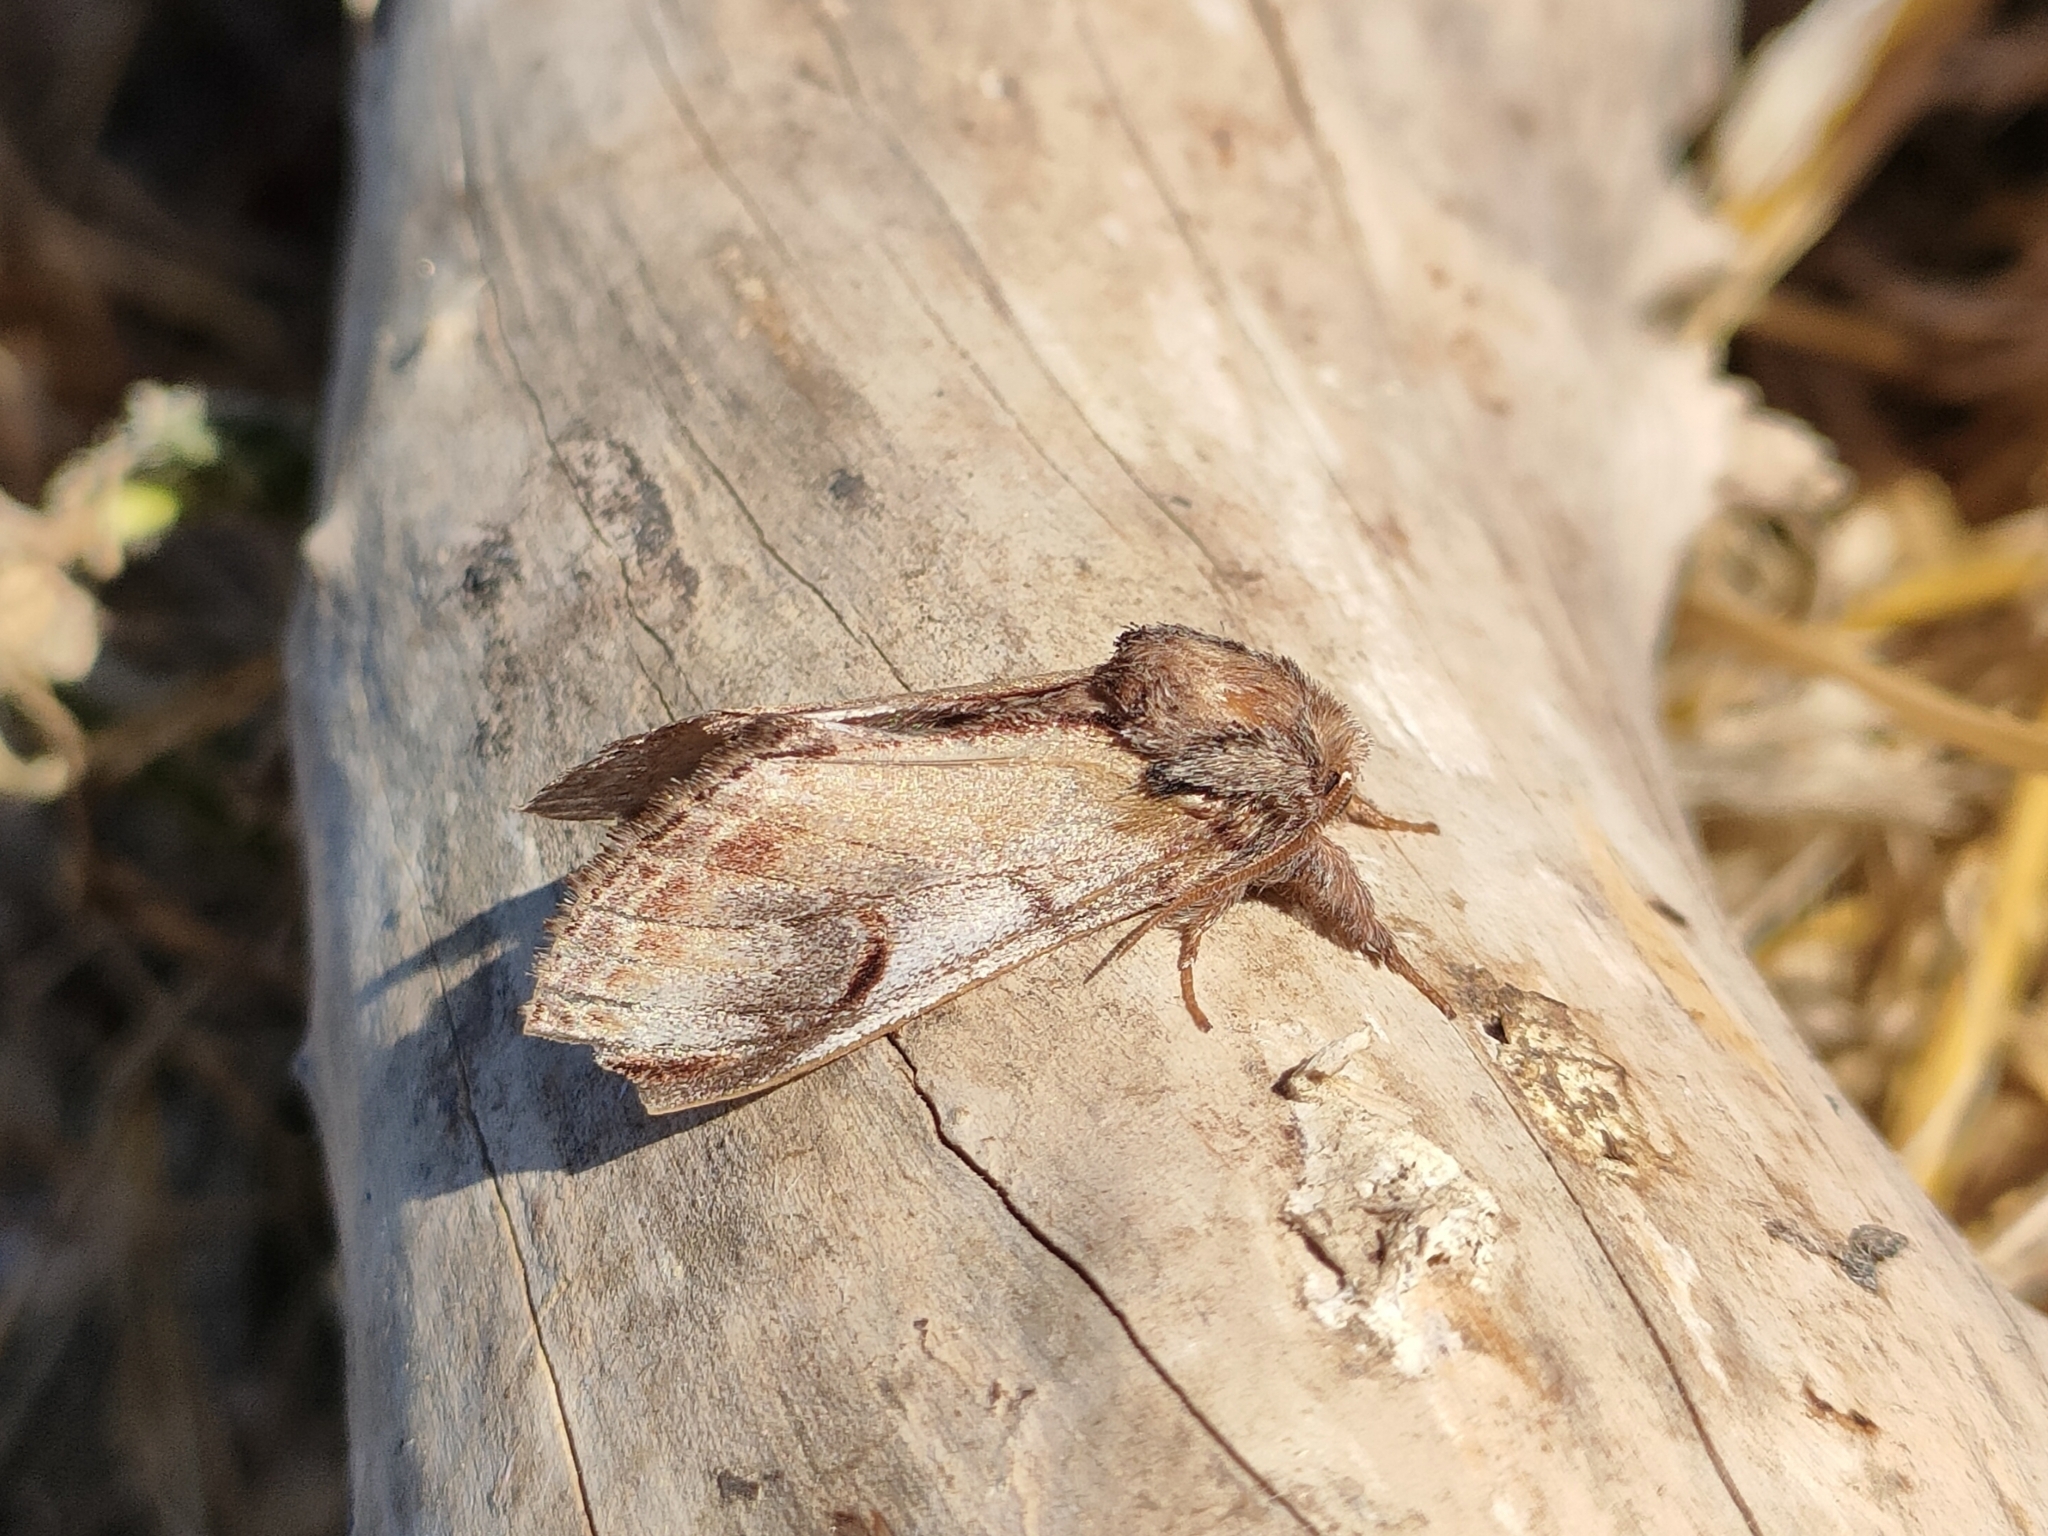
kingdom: Animalia
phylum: Arthropoda
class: Insecta
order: Lepidoptera
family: Notodontidae
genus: Notodonta
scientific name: Notodonta ziczac
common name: Pebble prominent
